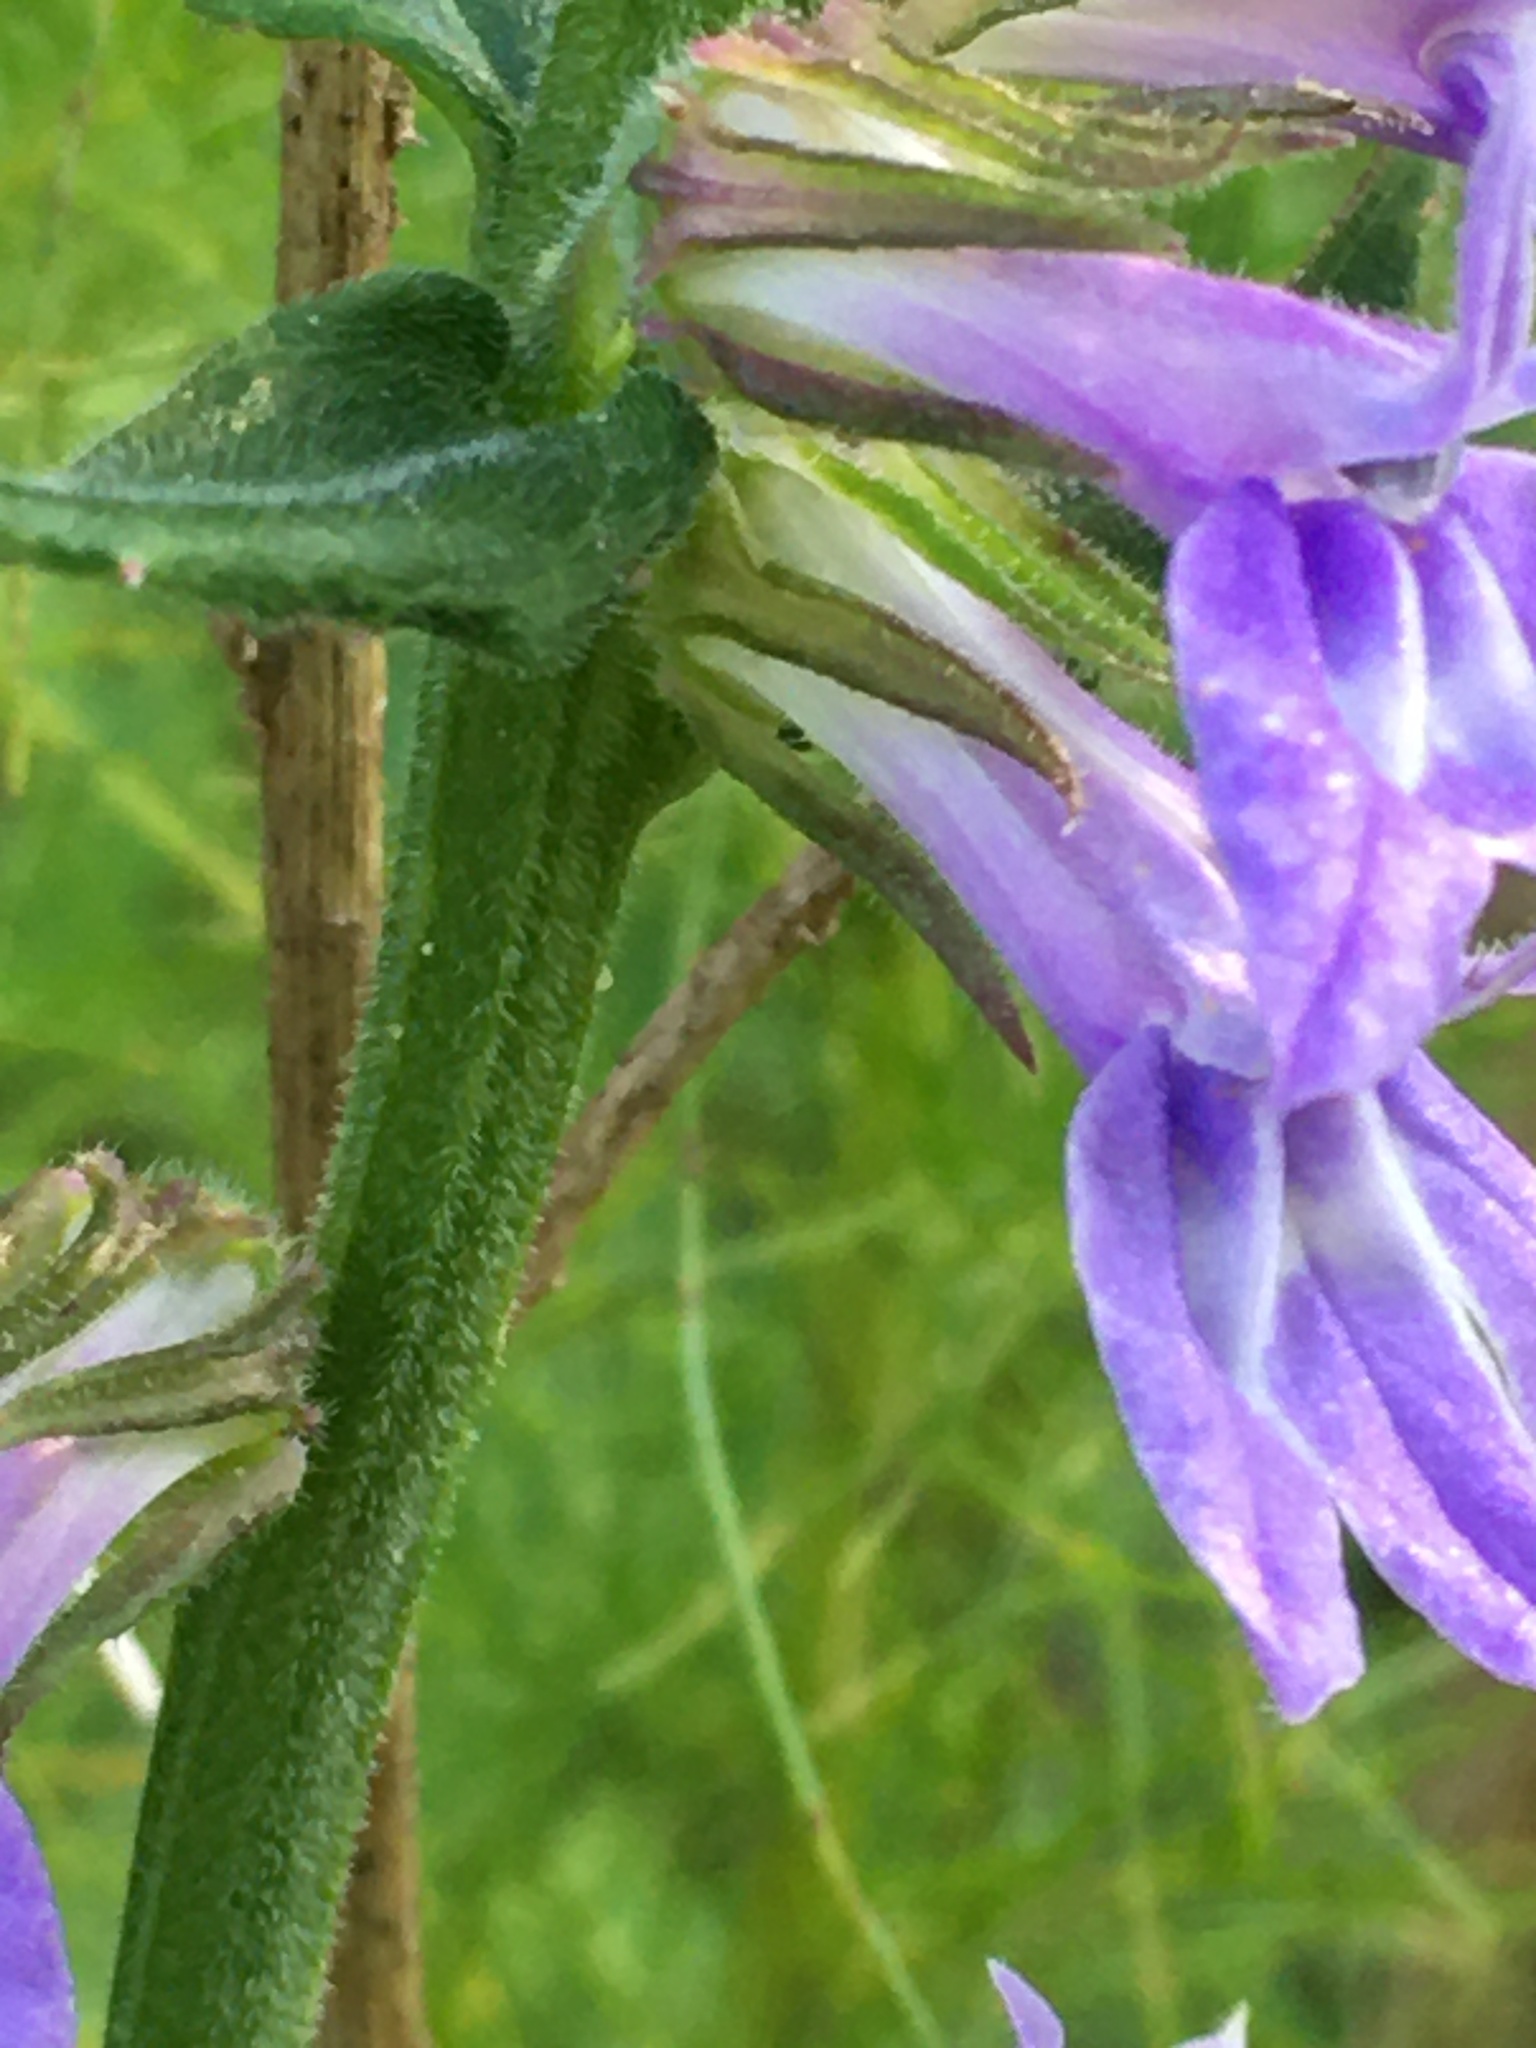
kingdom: Plantae
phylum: Tracheophyta
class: Magnoliopsida
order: Asterales
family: Campanulaceae
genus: Lobelia
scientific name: Lobelia puberula
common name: Purple dewdrop
